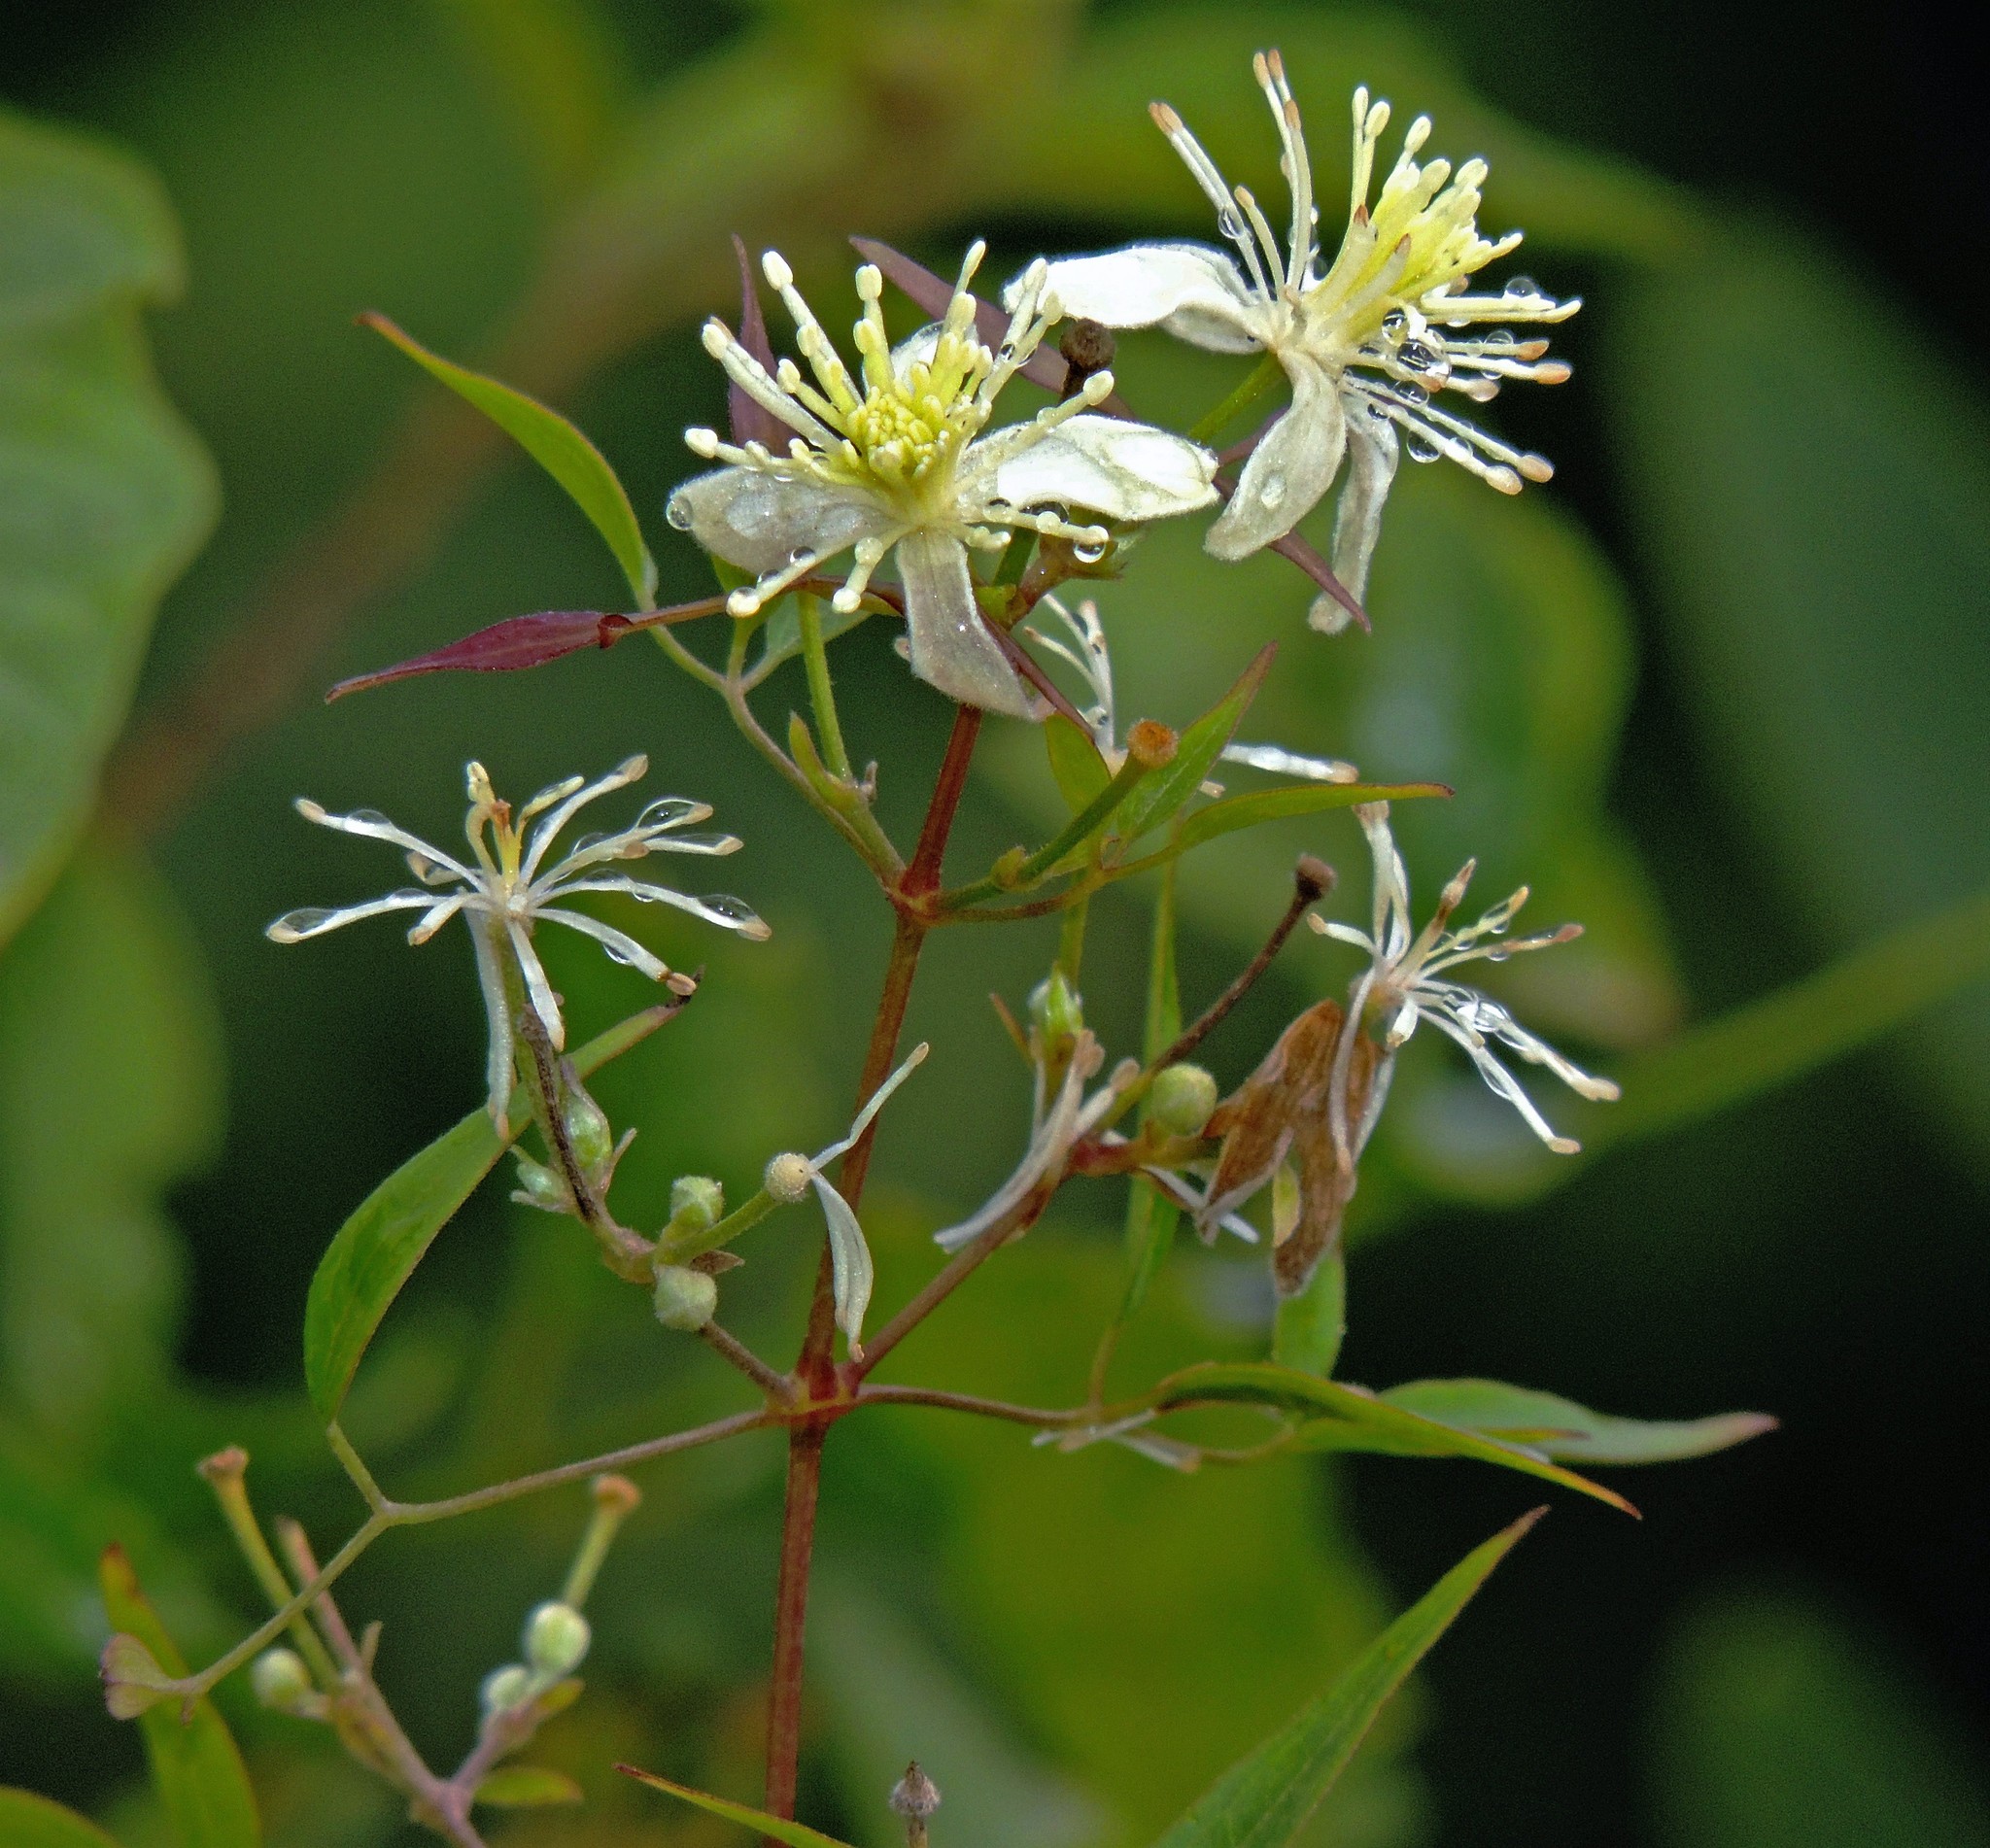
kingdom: Plantae
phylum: Tracheophyta
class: Magnoliopsida
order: Ranunculales
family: Ranunculaceae
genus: Clematis
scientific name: Clematis montevidensis
